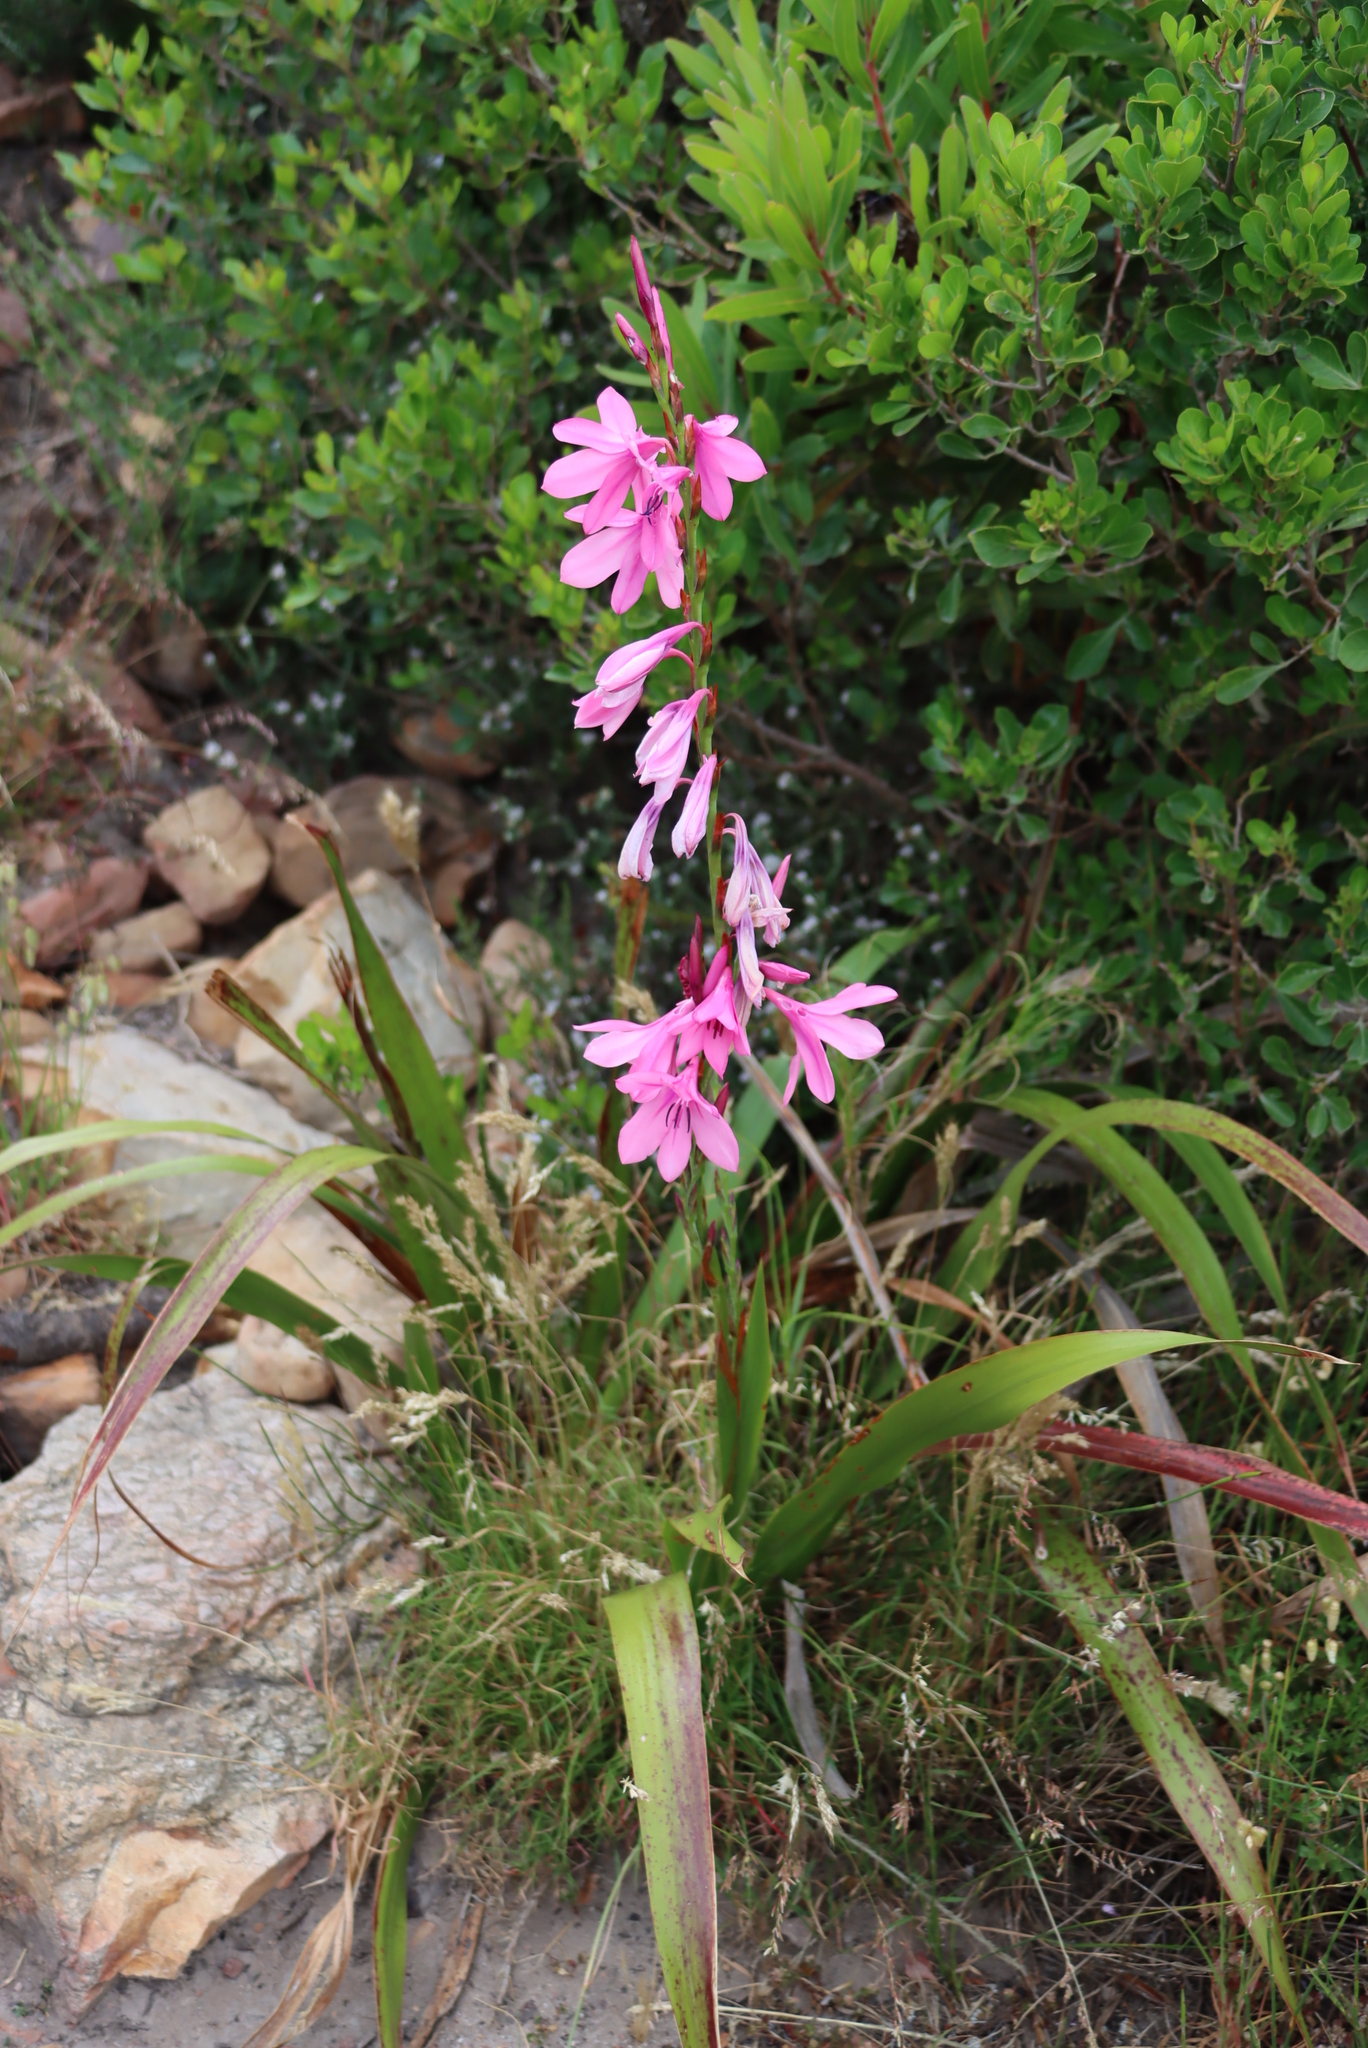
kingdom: Plantae
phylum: Tracheophyta
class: Liliopsida
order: Asparagales
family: Iridaceae
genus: Watsonia
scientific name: Watsonia borbonica
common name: Bugle-lily
